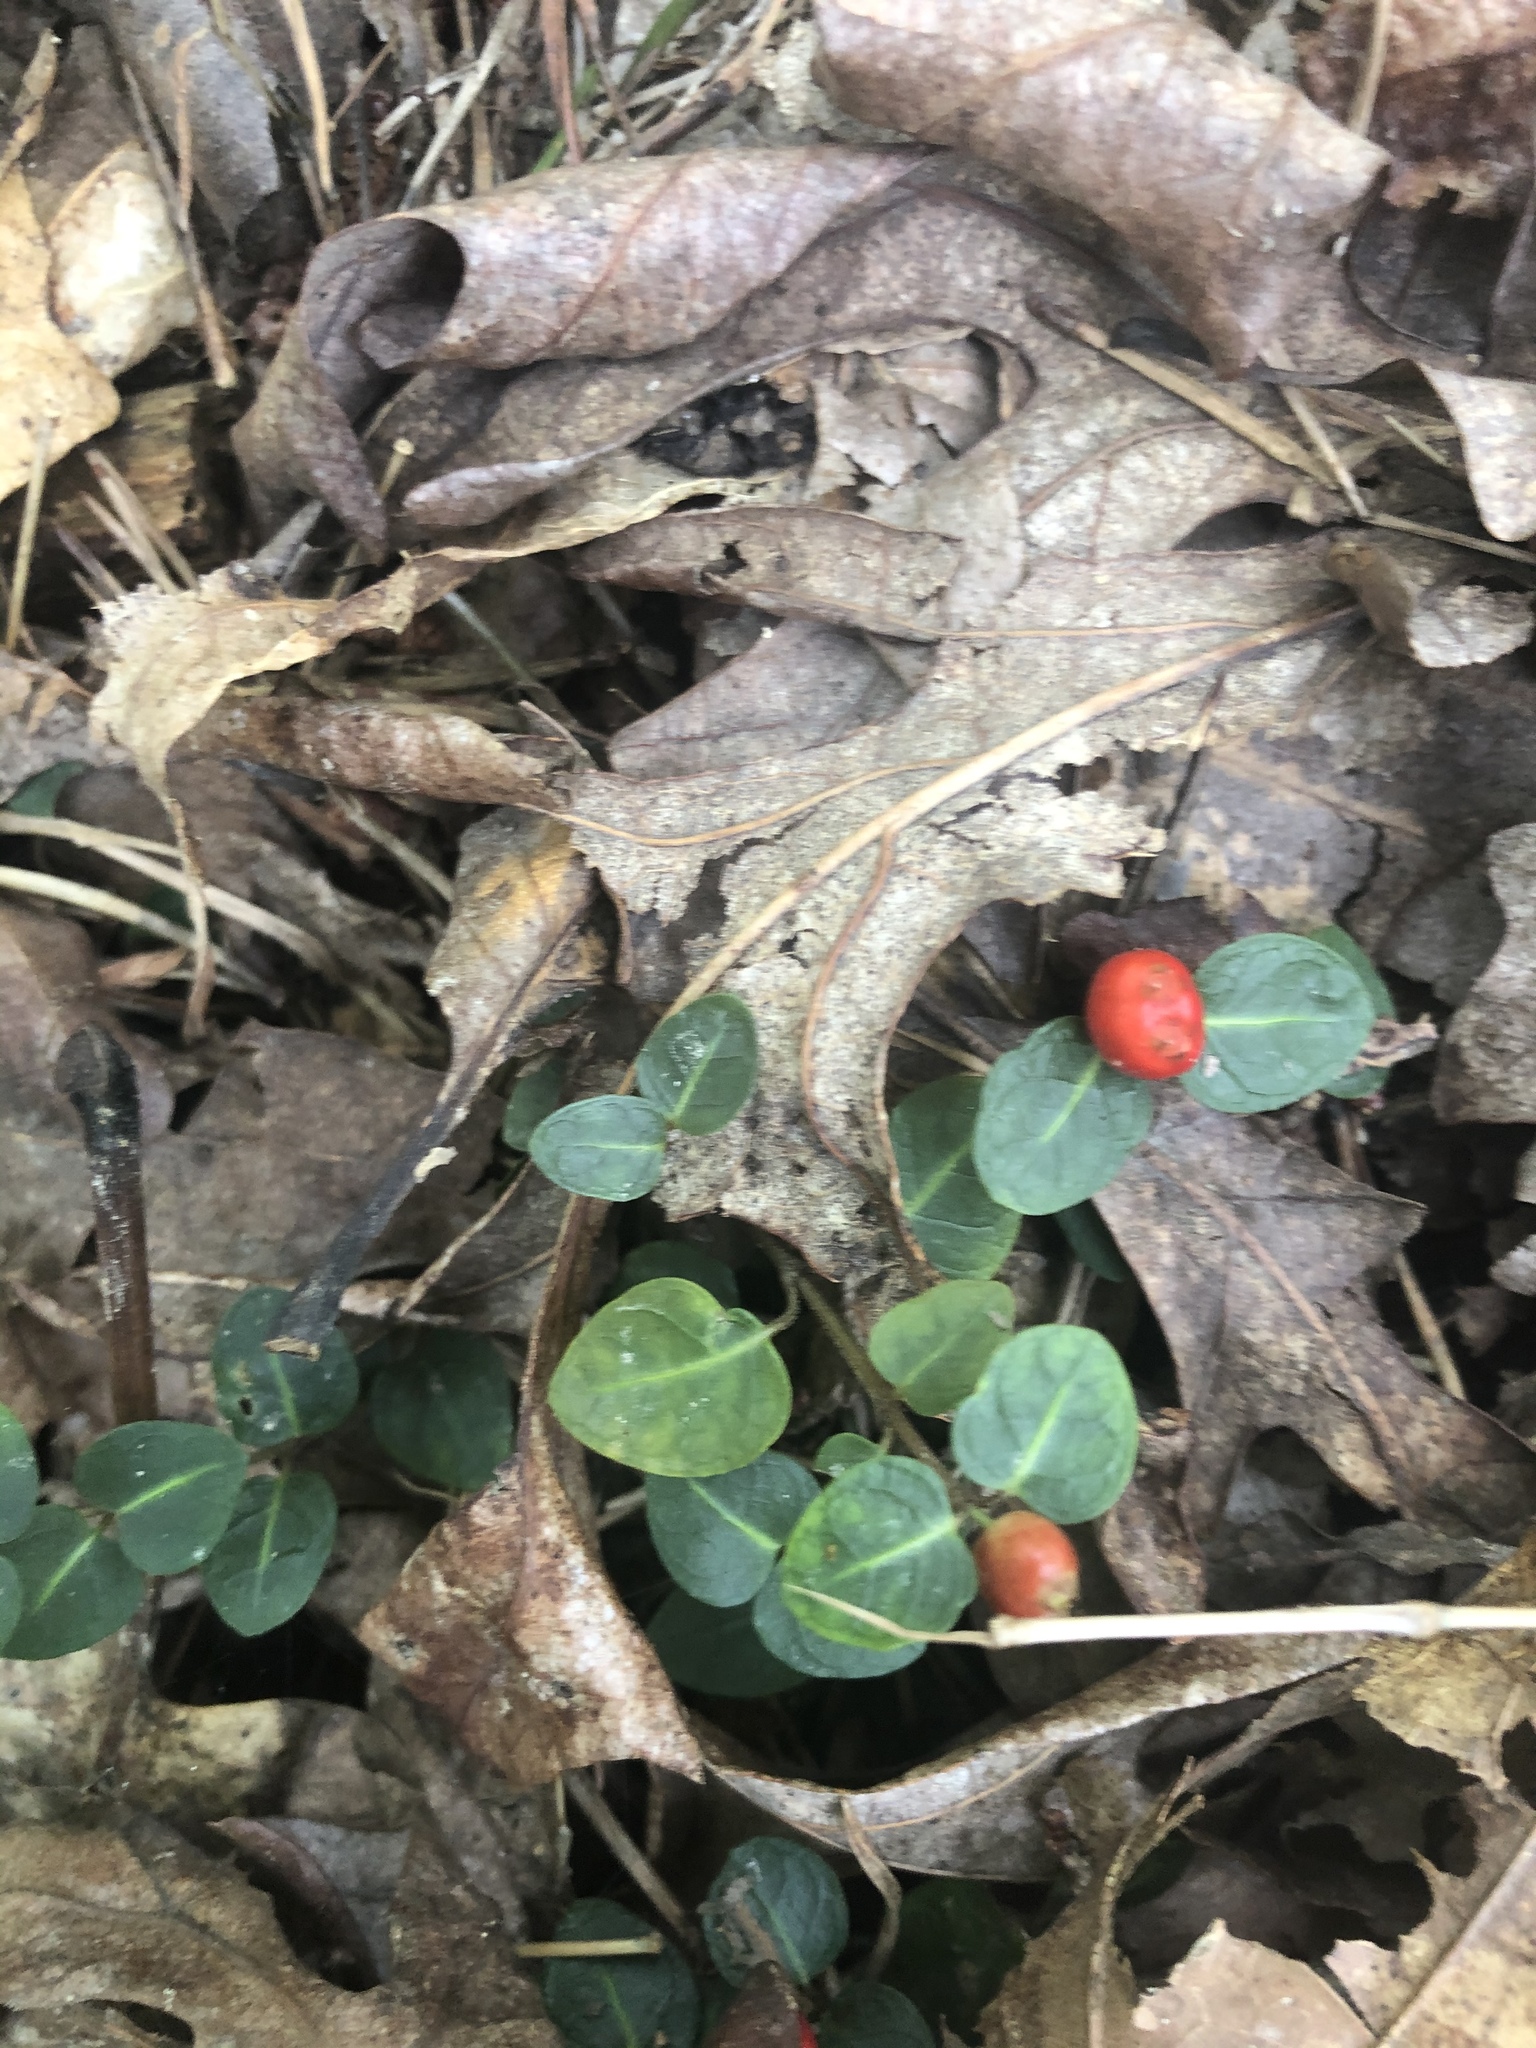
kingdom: Plantae
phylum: Tracheophyta
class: Magnoliopsida
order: Gentianales
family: Rubiaceae
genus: Mitchella
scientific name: Mitchella repens
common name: Partridge-berry
